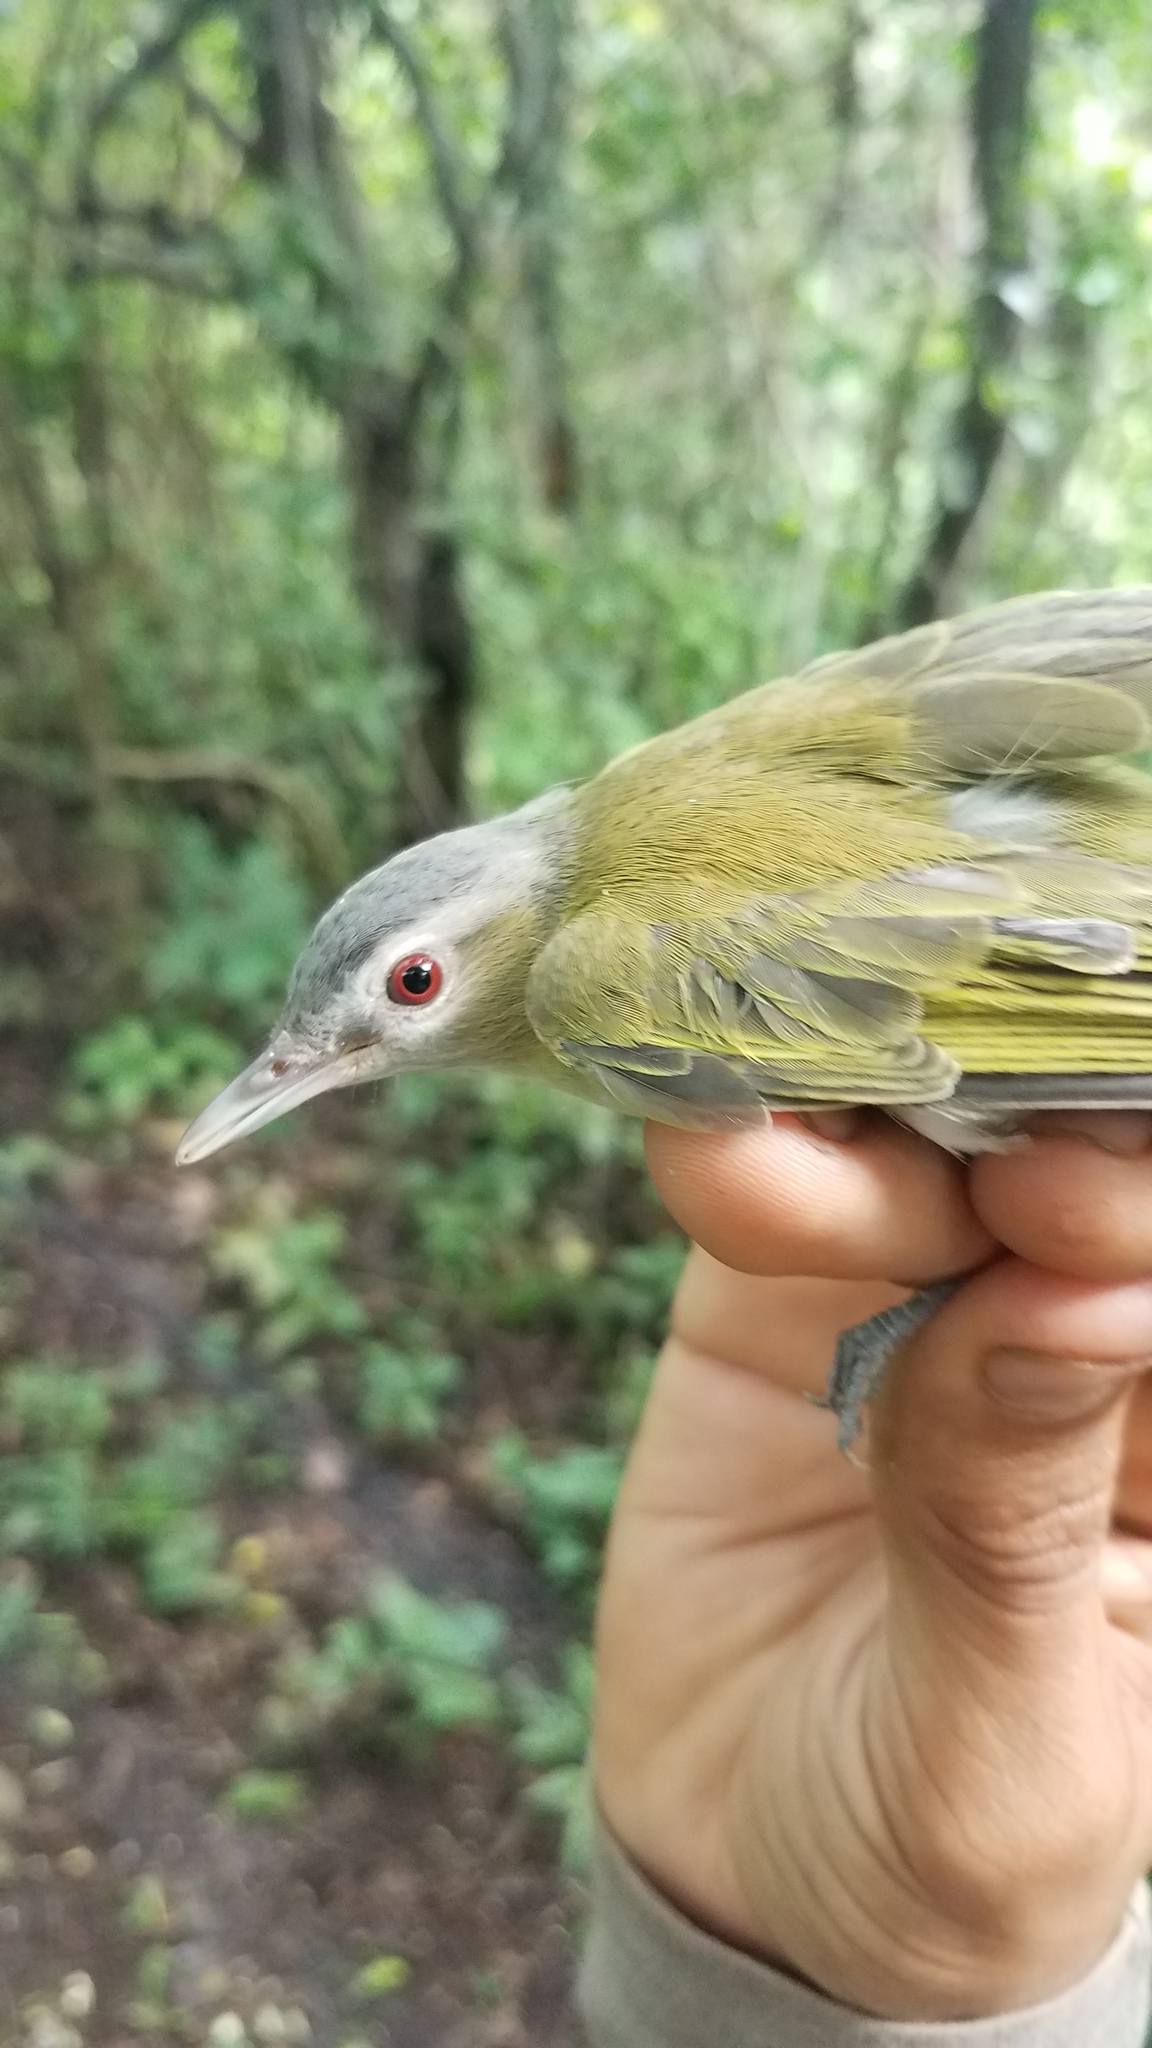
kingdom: Animalia
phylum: Chordata
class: Aves
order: Passeriformes
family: Vireonidae
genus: Vireo
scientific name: Vireo flavoviridis
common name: Yellow-green vireo
